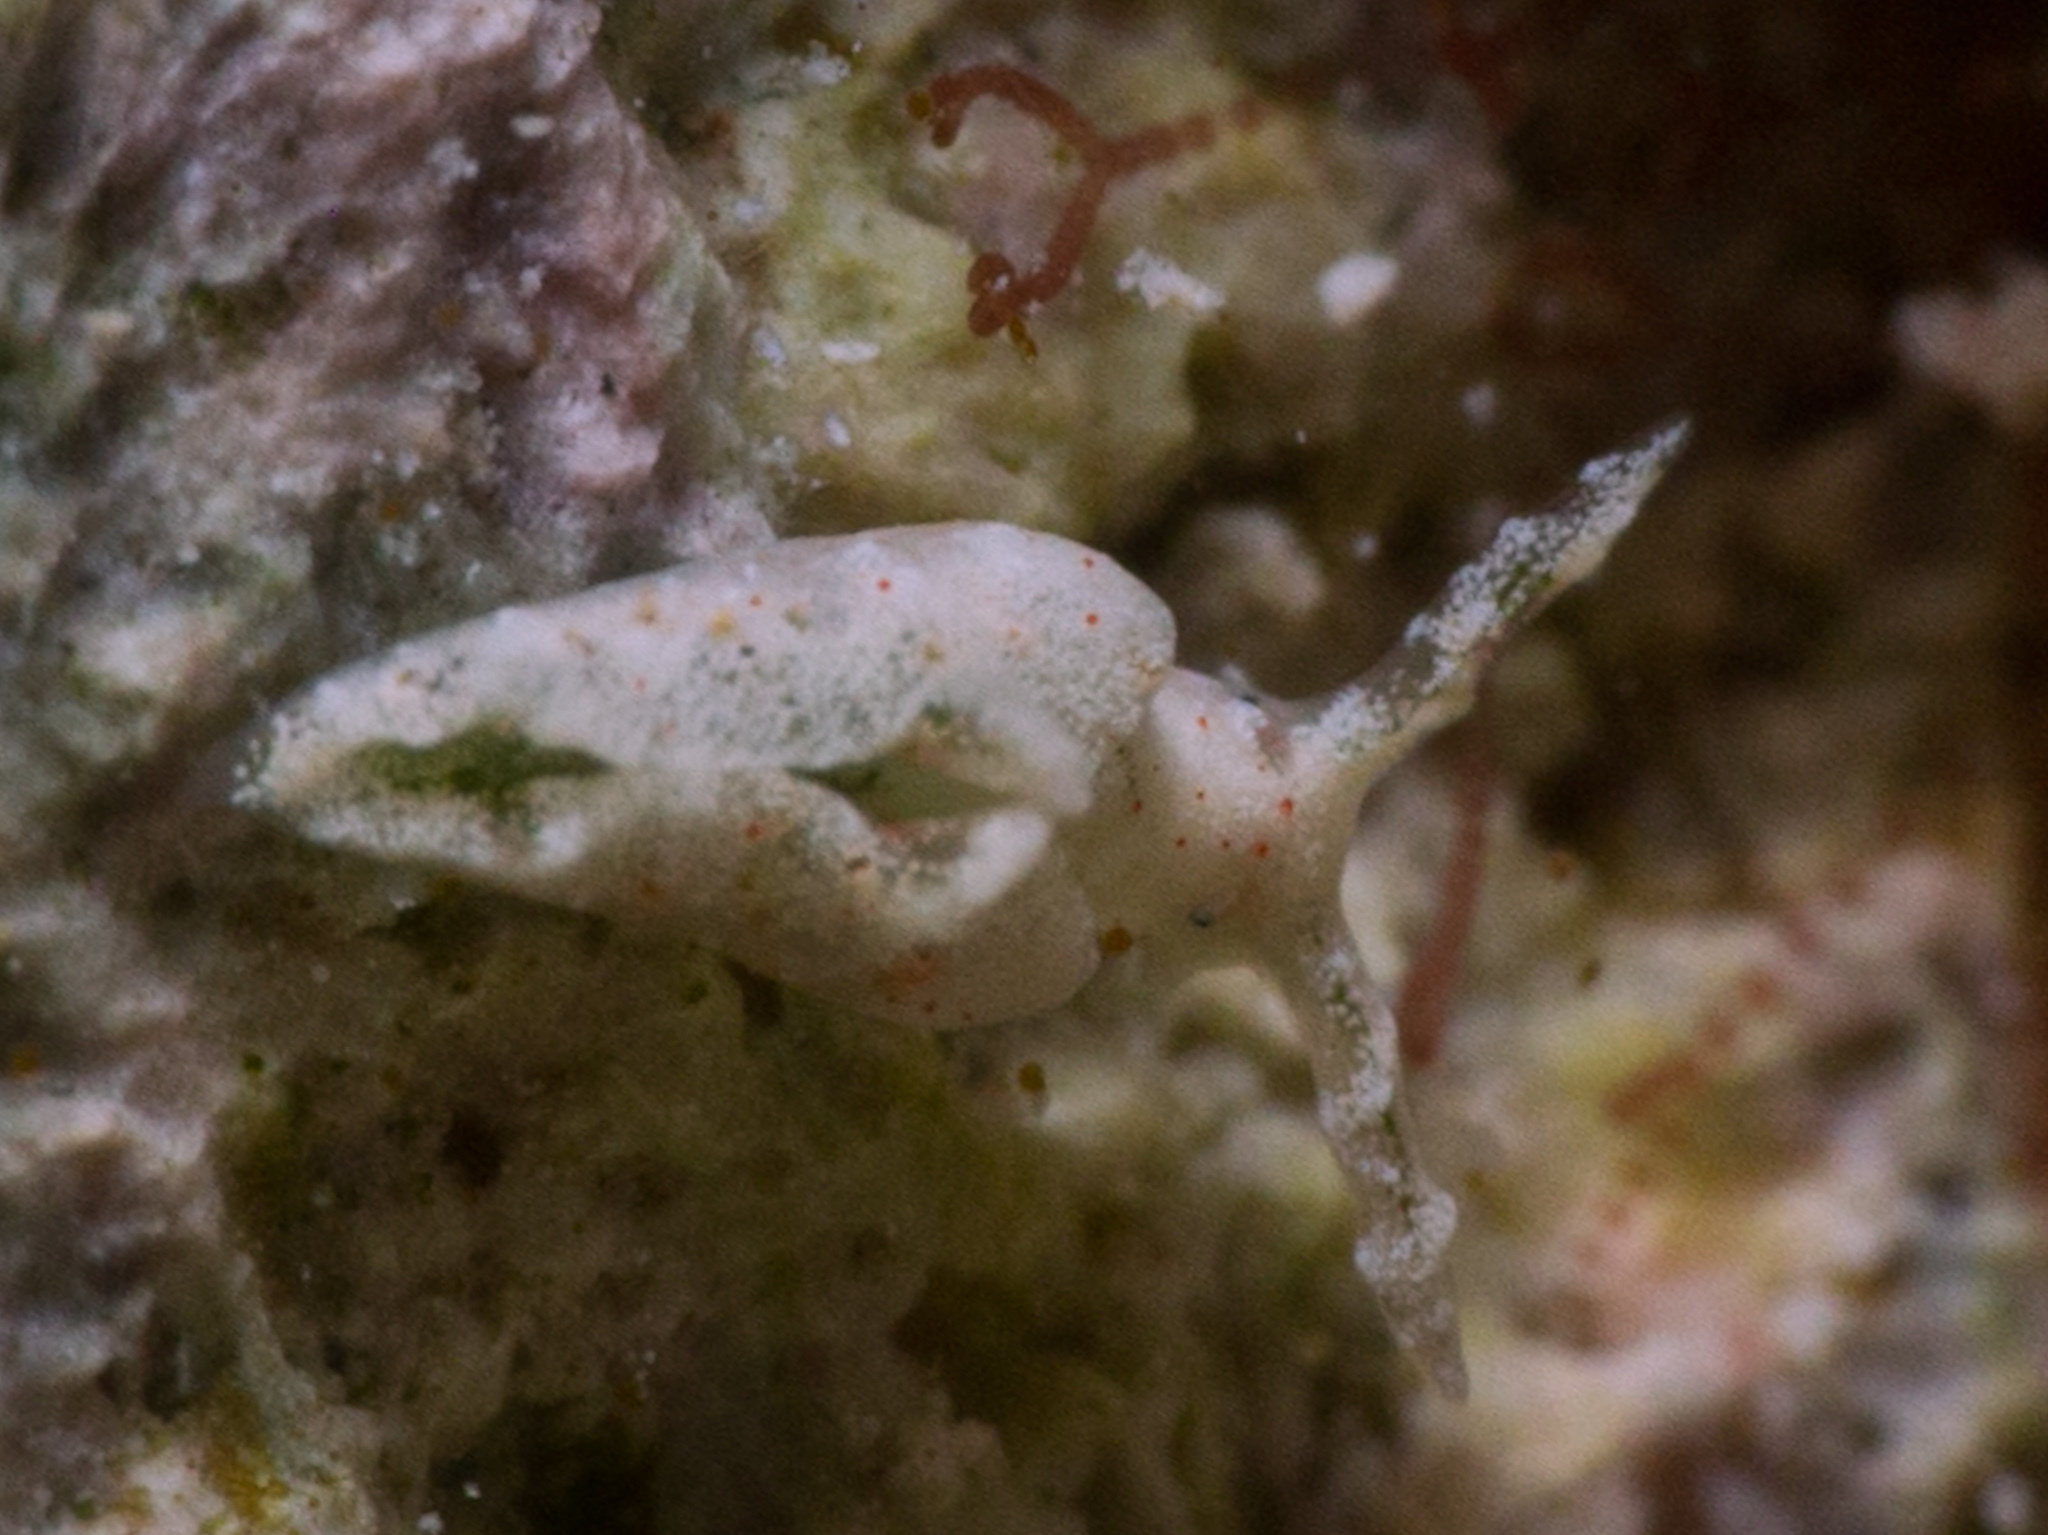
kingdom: Animalia
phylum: Mollusca
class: Gastropoda
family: Plakobranchidae
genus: Elysia
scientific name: Elysia cornigera
